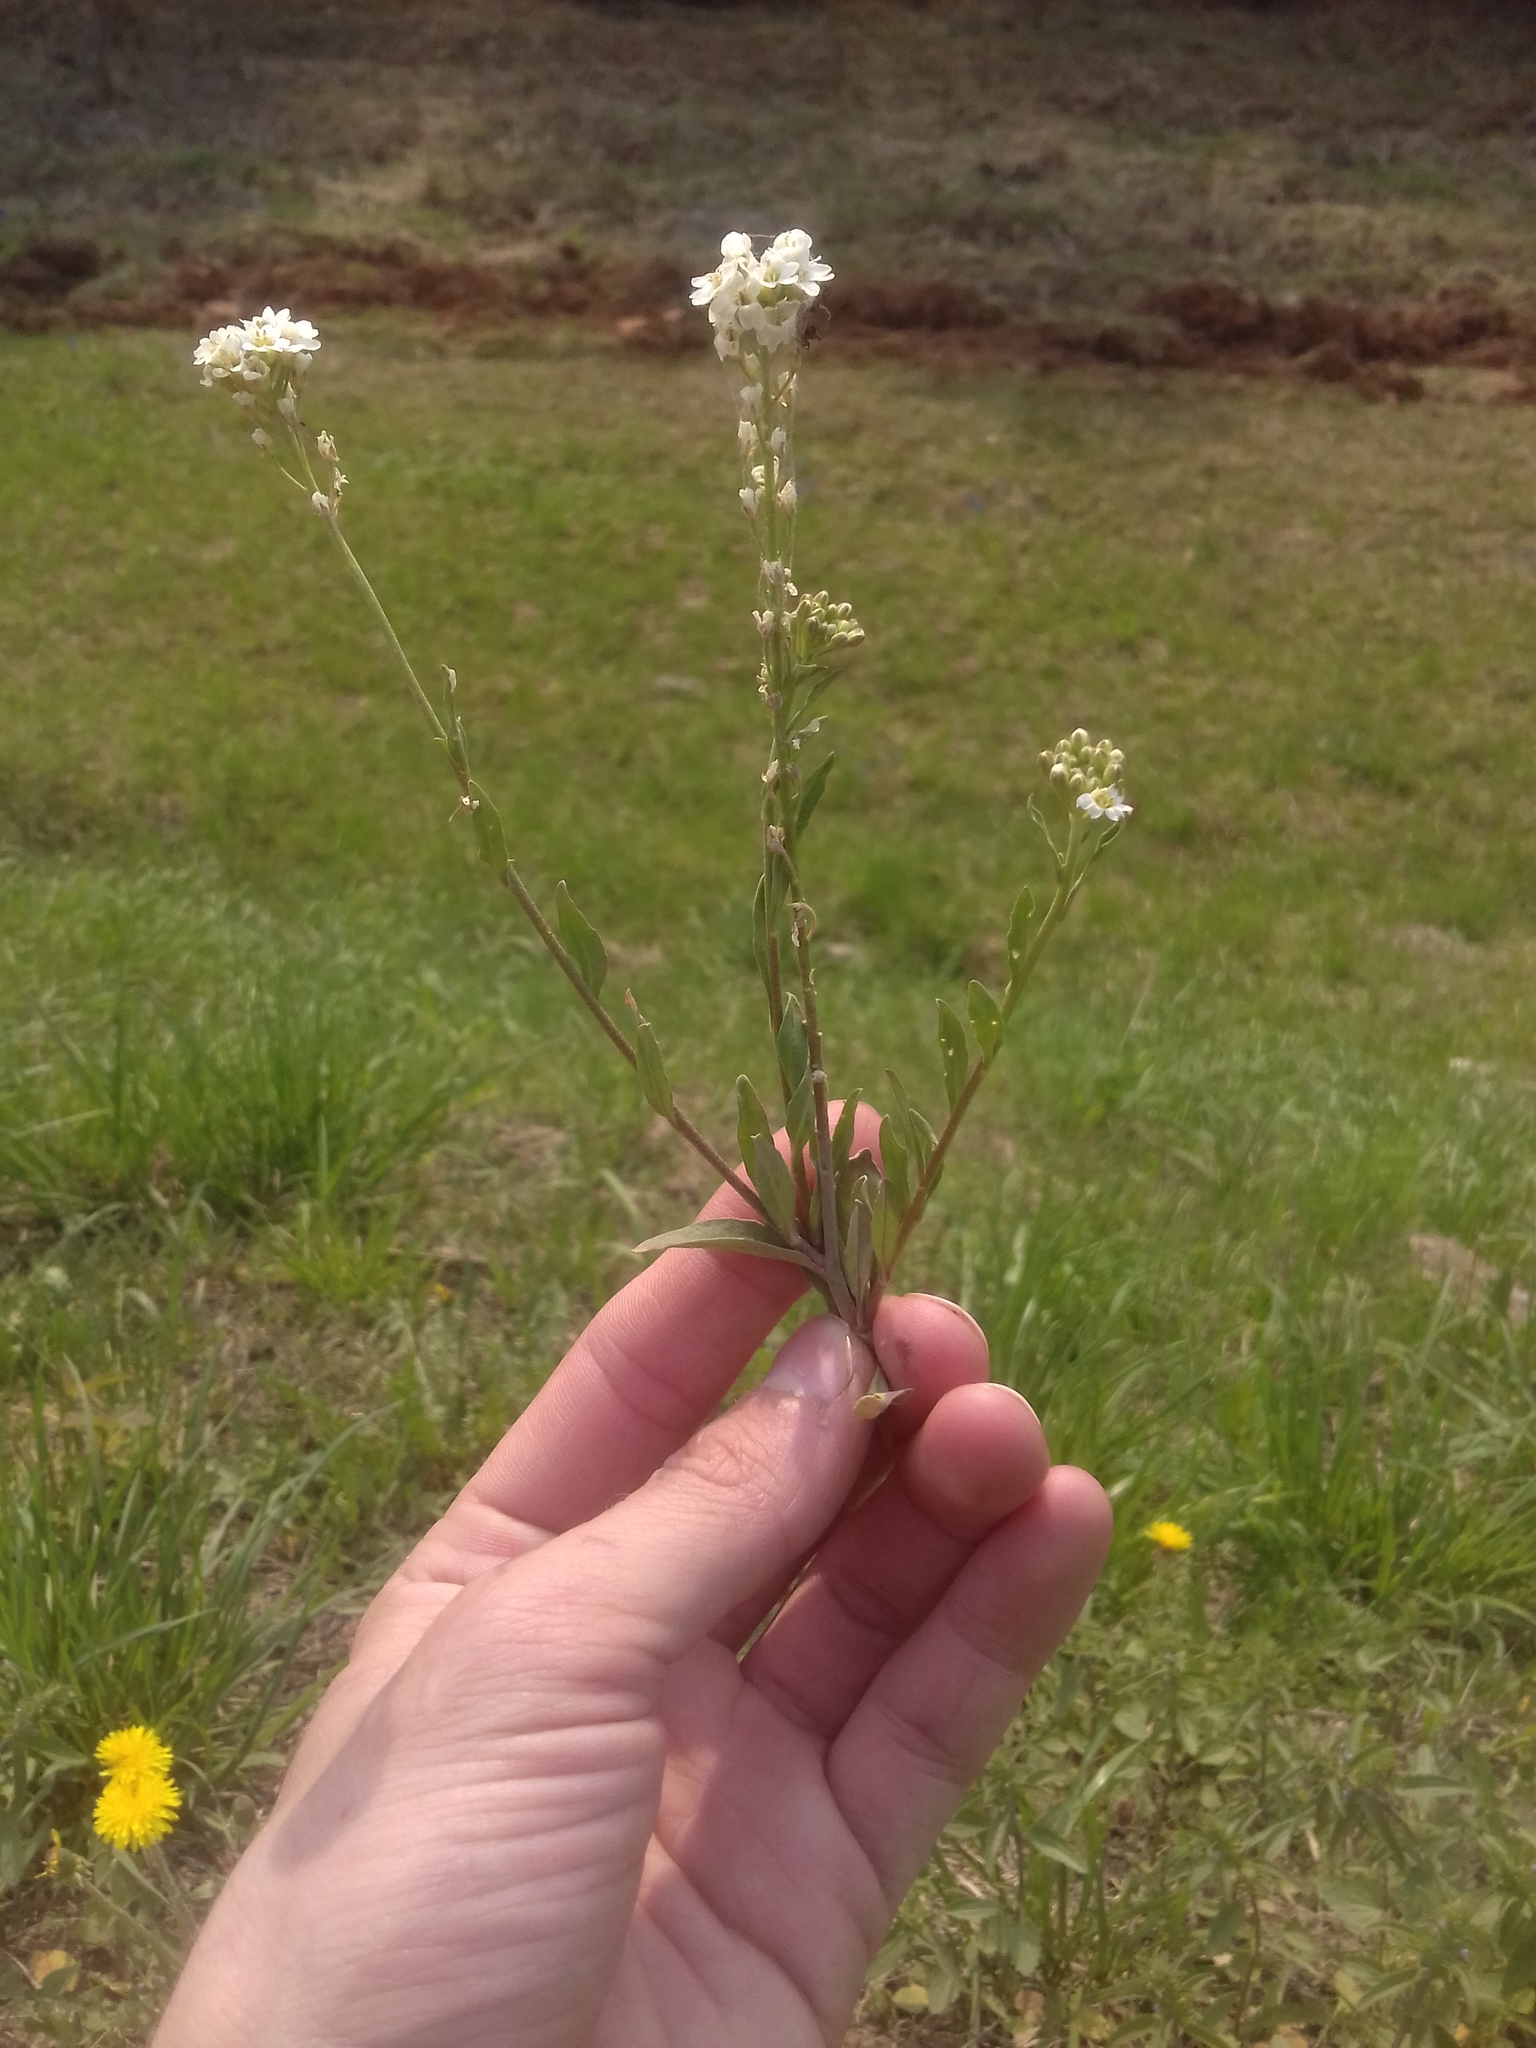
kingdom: Plantae
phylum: Tracheophyta
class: Magnoliopsida
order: Brassicales
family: Brassicaceae
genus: Berteroa
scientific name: Berteroa incana
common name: Hoary alison
